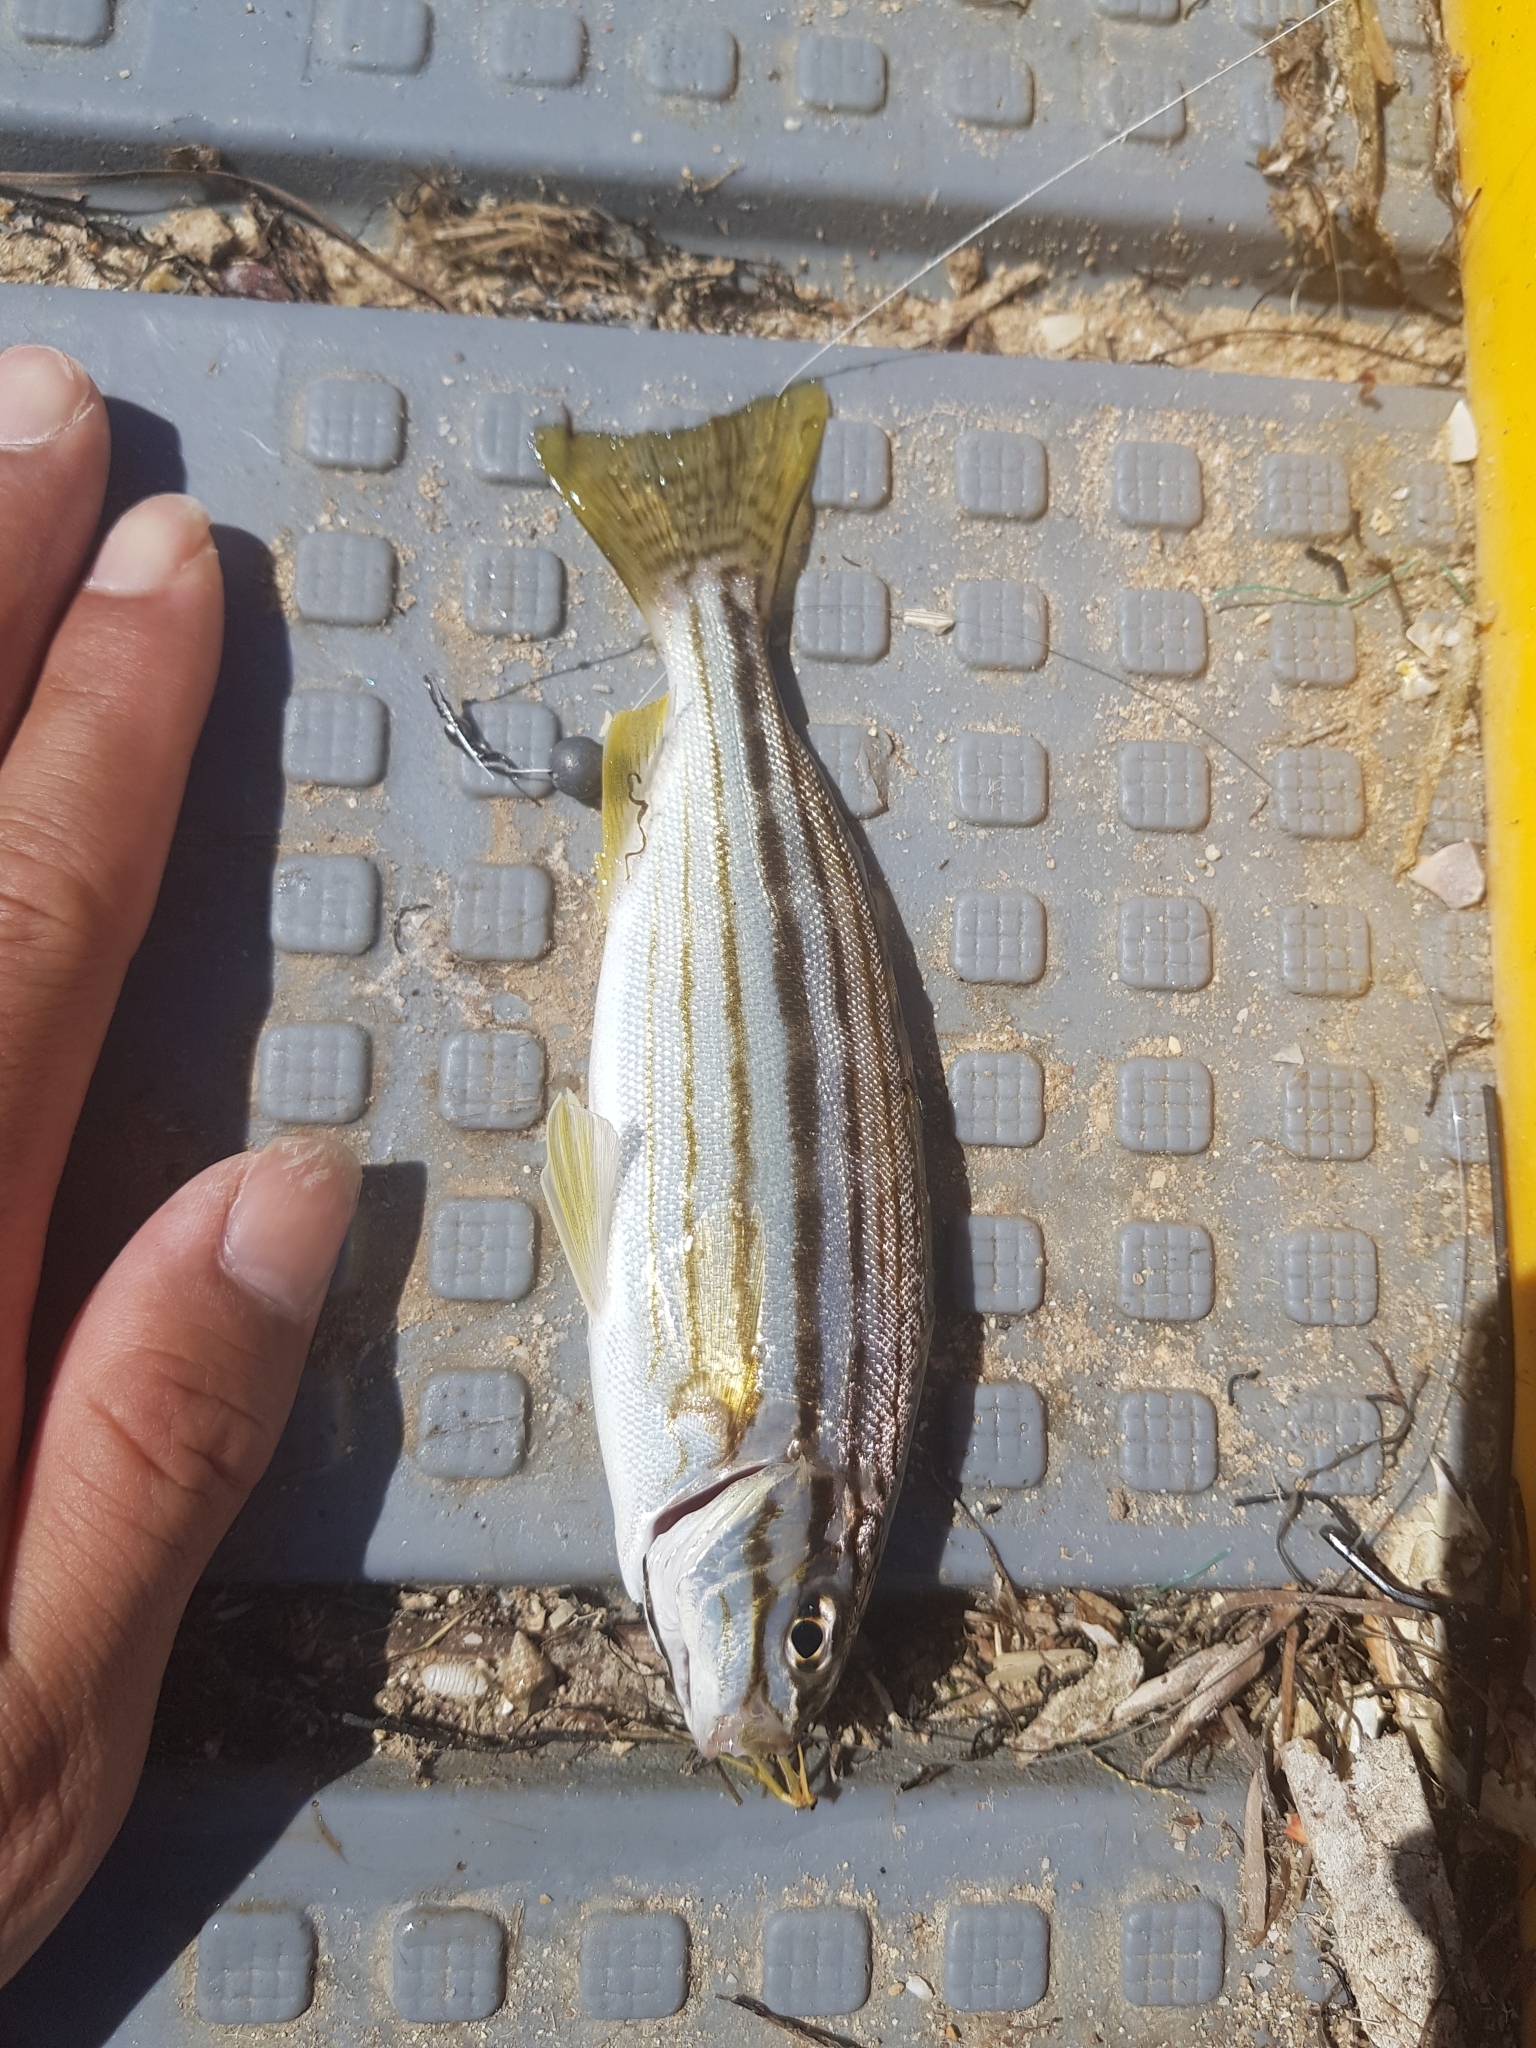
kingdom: Animalia
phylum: Chordata
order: Perciformes
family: Terapontidae
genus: Pelates
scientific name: Pelates octolineatus
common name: Eight-lined trumpeter
